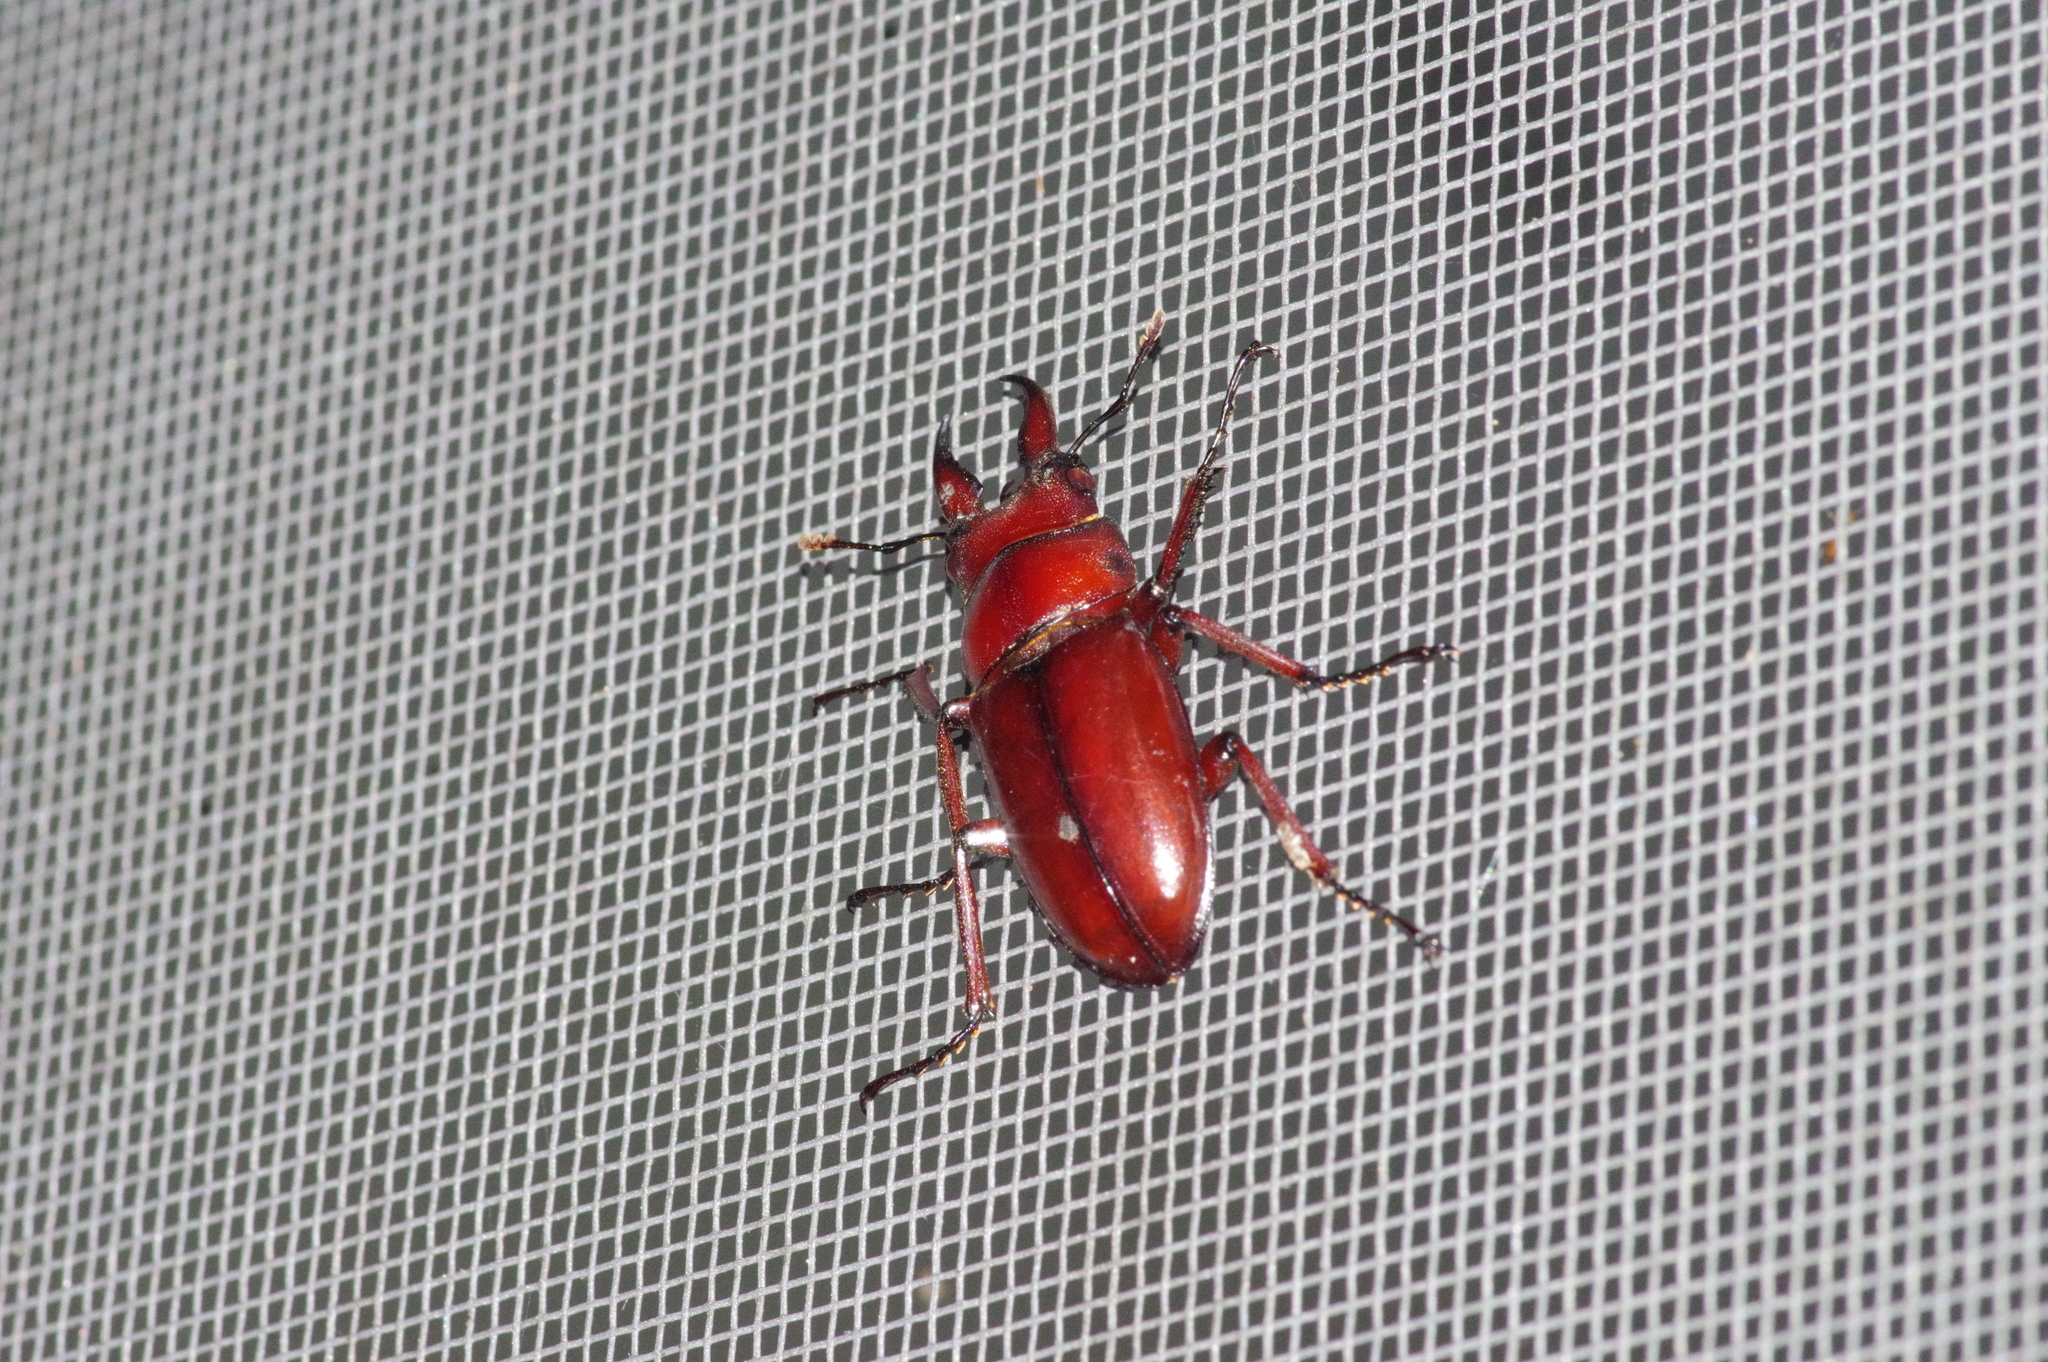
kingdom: Animalia
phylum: Arthropoda
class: Insecta
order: Coleoptera
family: Lucanidae
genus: Prosopocoilus
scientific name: Prosopocoilus dissimilis
